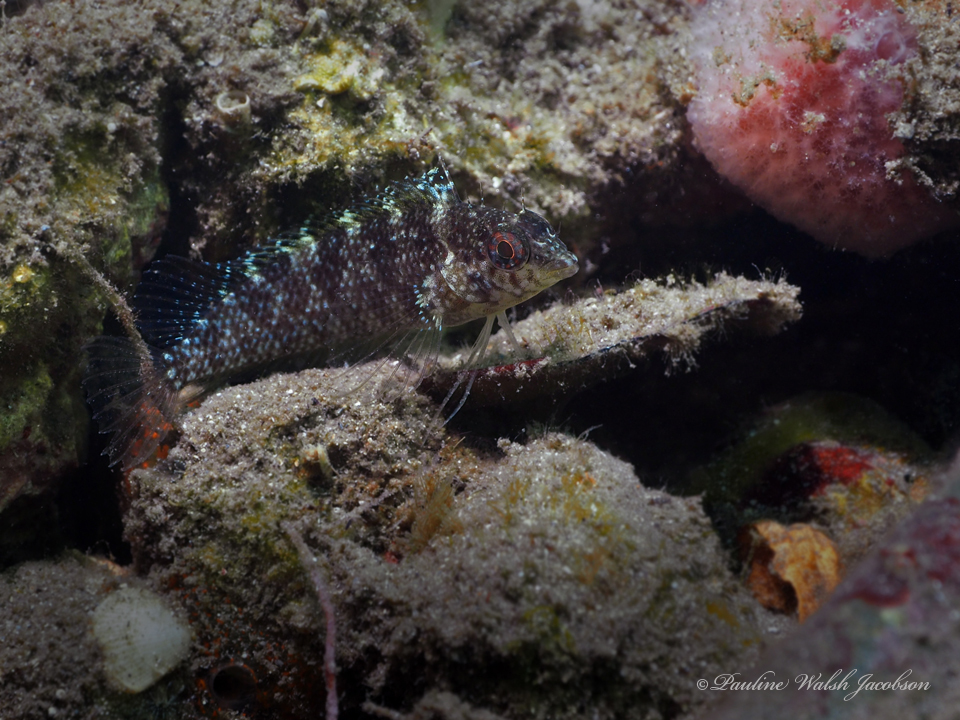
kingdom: Animalia
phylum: Chordata
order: Perciformes
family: Labrisomidae
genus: Malacoctenus
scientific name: Malacoctenus macropus
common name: Rosy blenny
